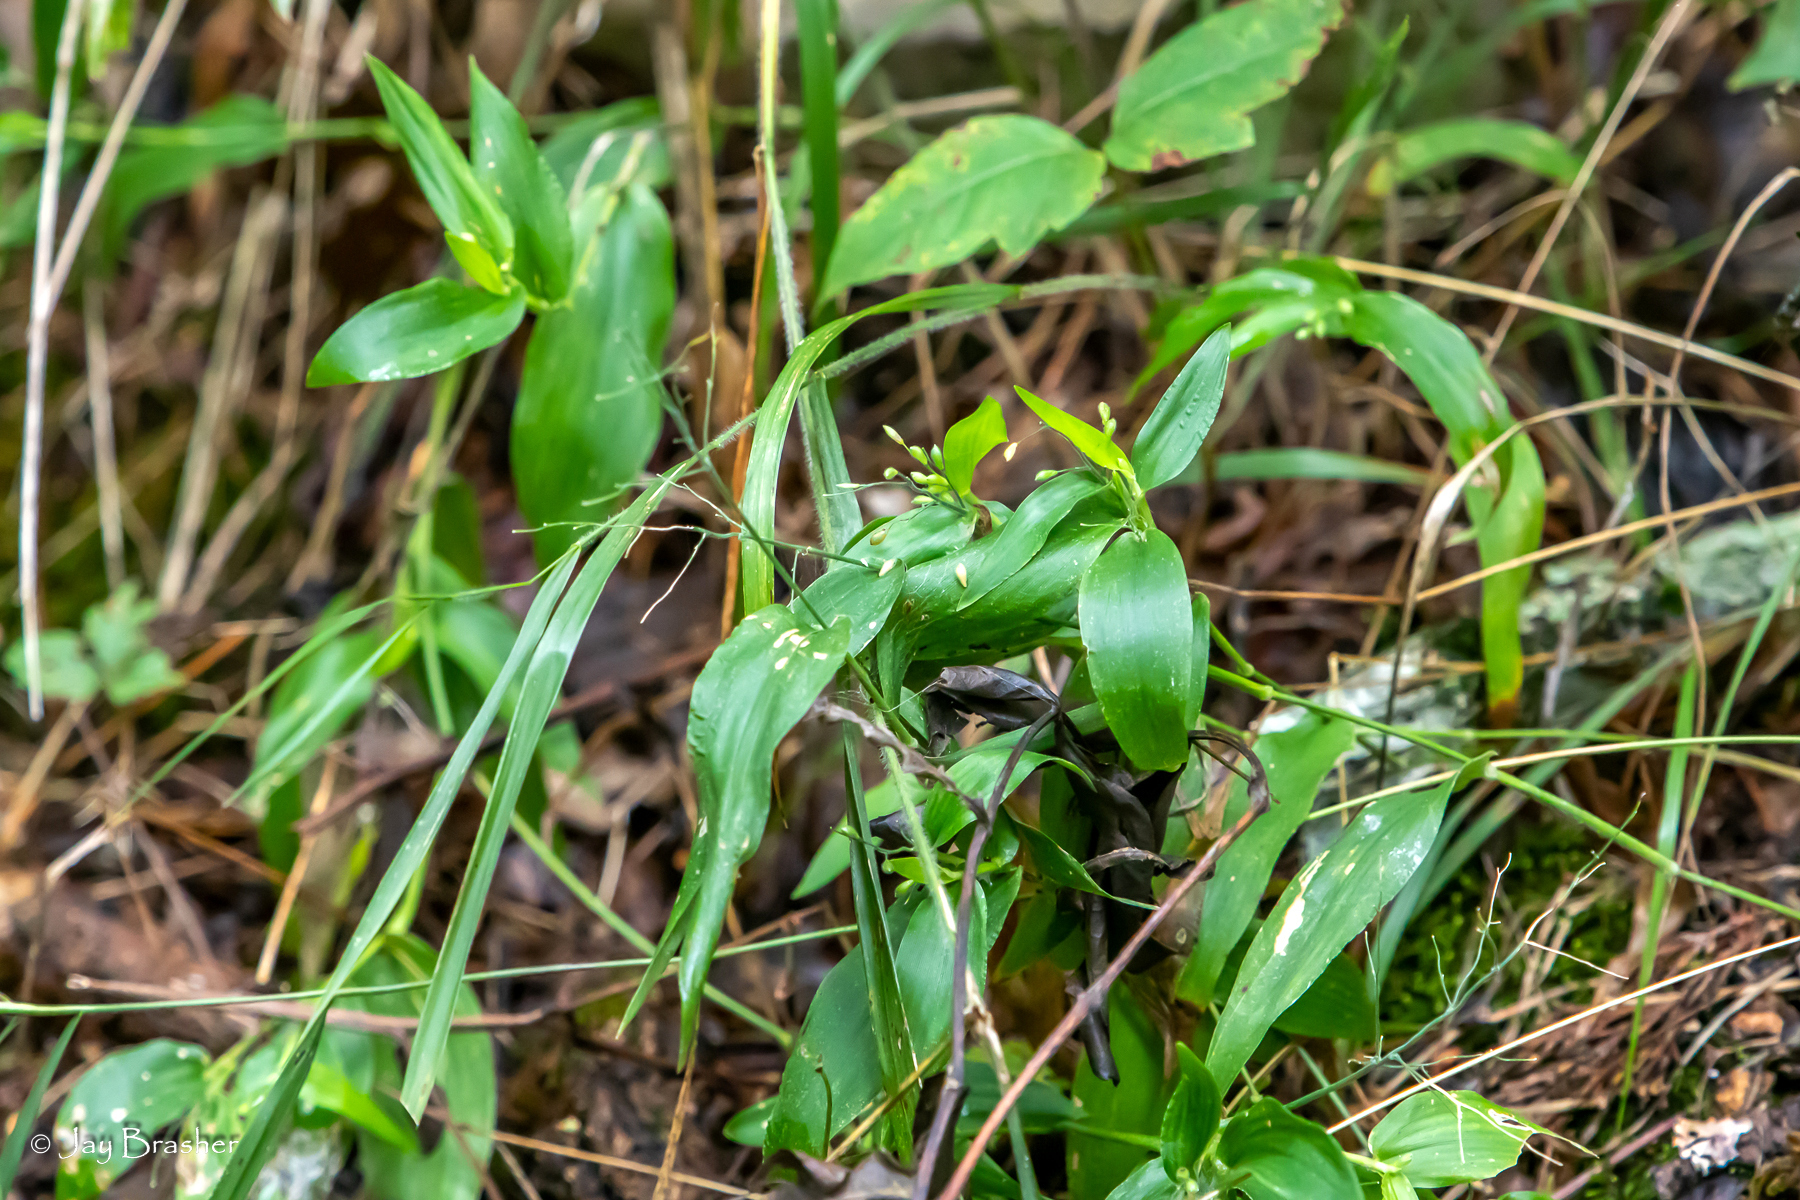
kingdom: Plantae
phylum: Tracheophyta
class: Liliopsida
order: Poales
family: Poaceae
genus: Dichanthelium
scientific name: Dichanthelium commutatum
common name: Variable witchgrass
